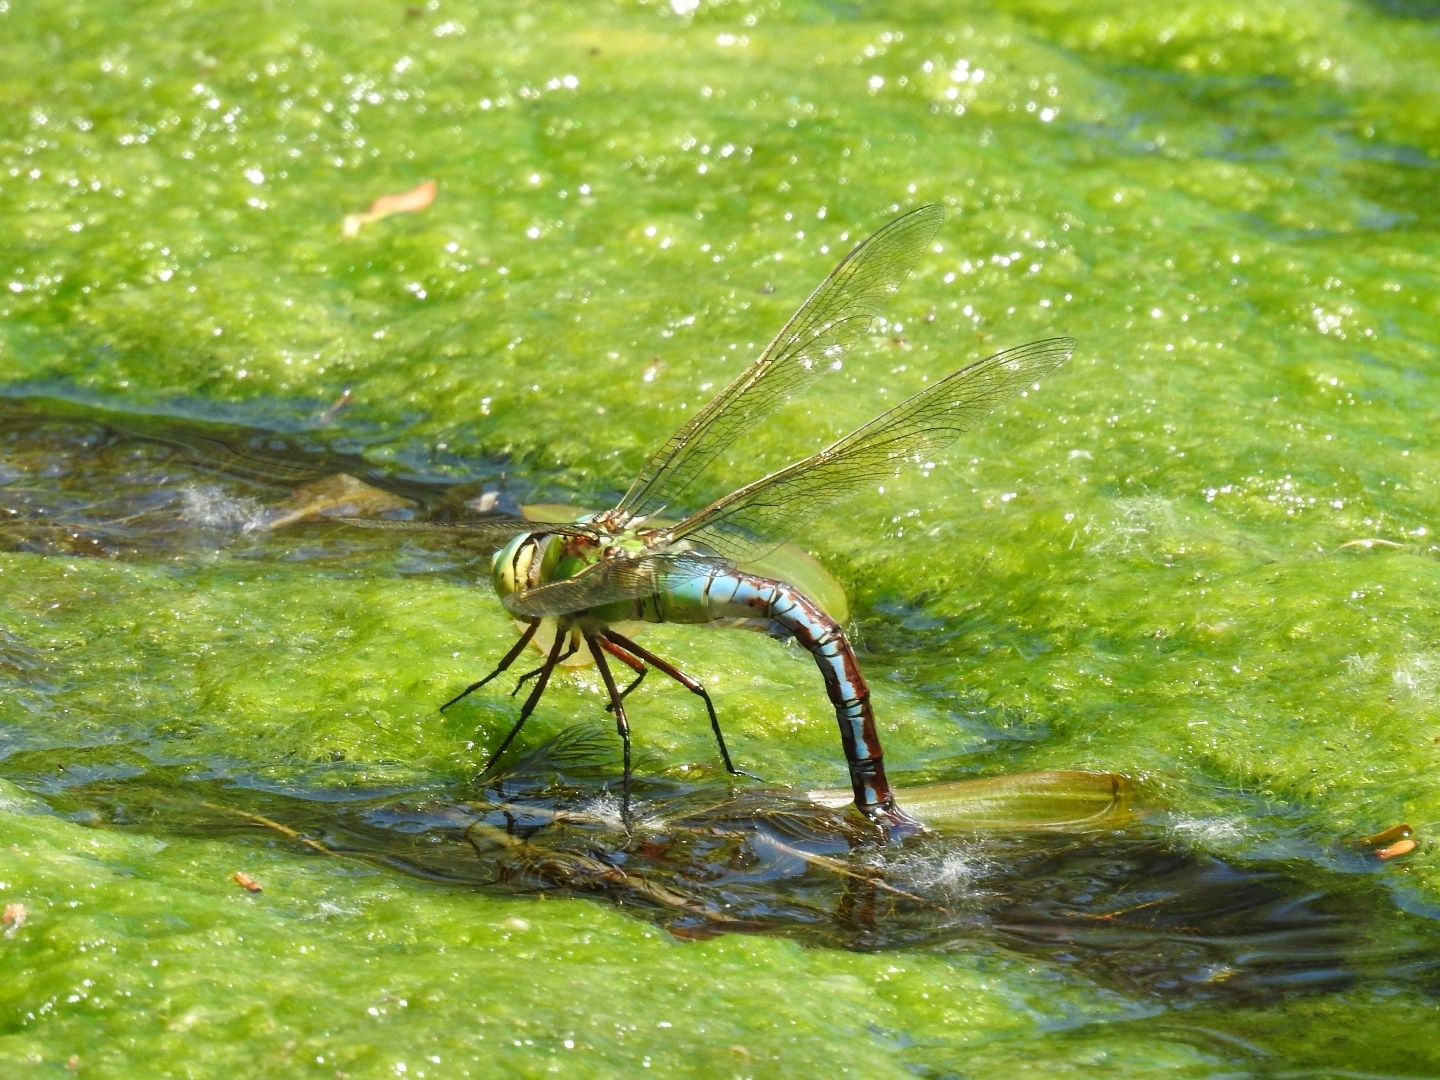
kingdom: Animalia
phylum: Arthropoda
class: Insecta
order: Odonata
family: Aeshnidae
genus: Anax
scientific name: Anax imperator
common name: Emperor dragonfly
